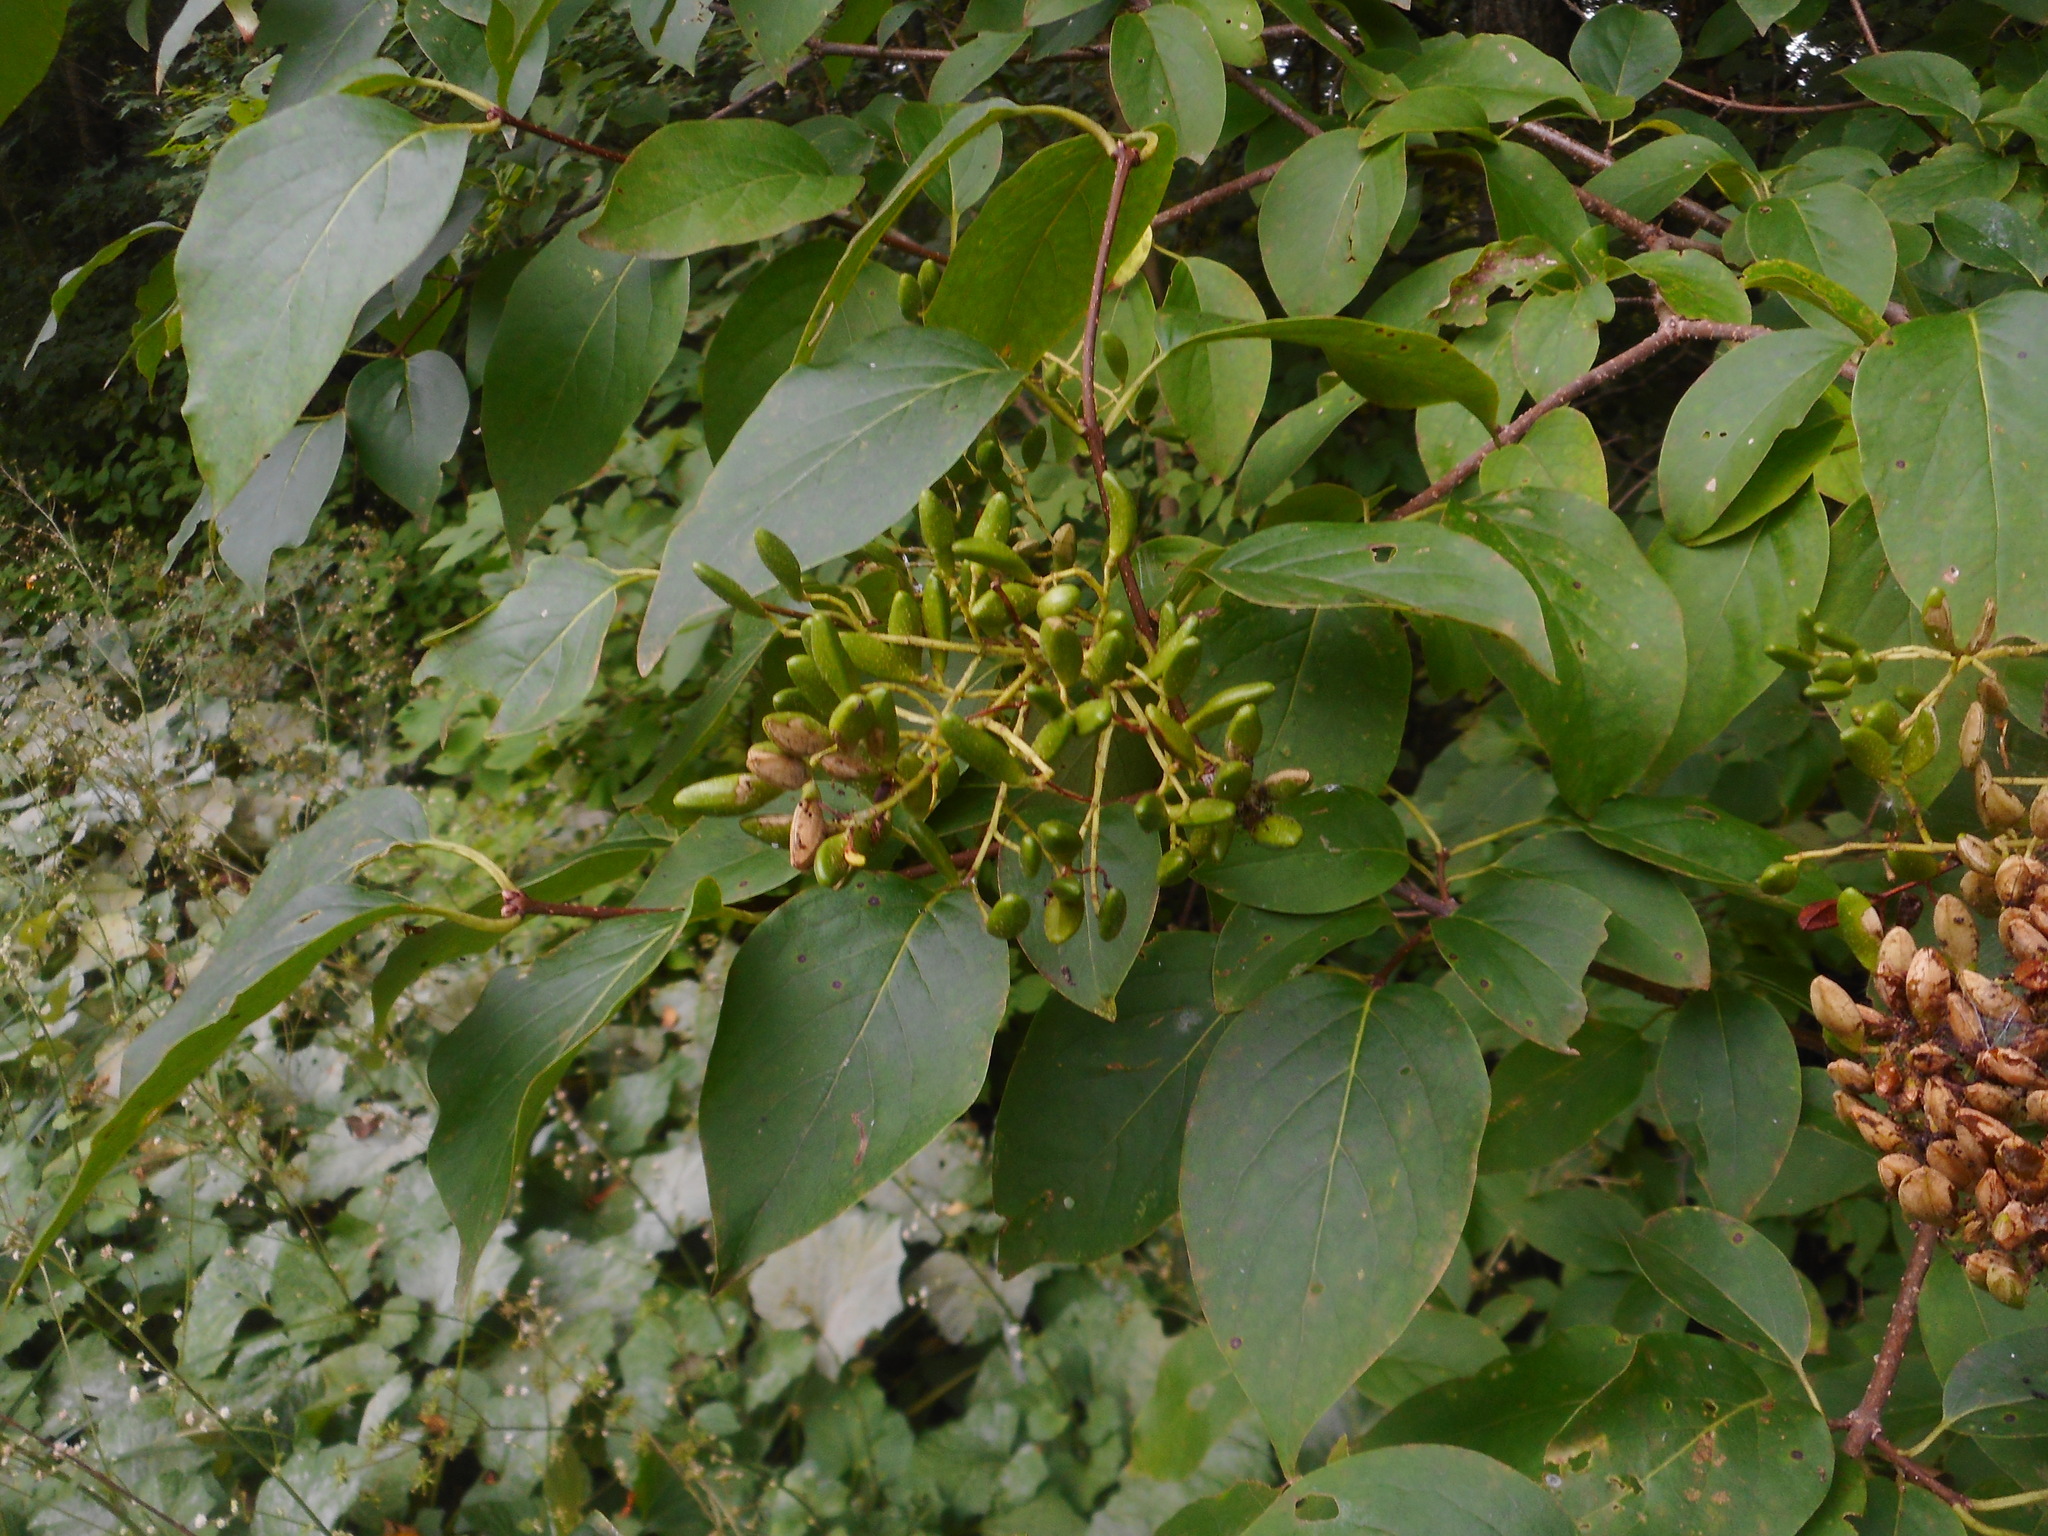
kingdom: Plantae
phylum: Tracheophyta
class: Magnoliopsida
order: Lamiales
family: Oleaceae
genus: Syringa
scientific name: Syringa reticulata
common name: Japanese tree lilac
